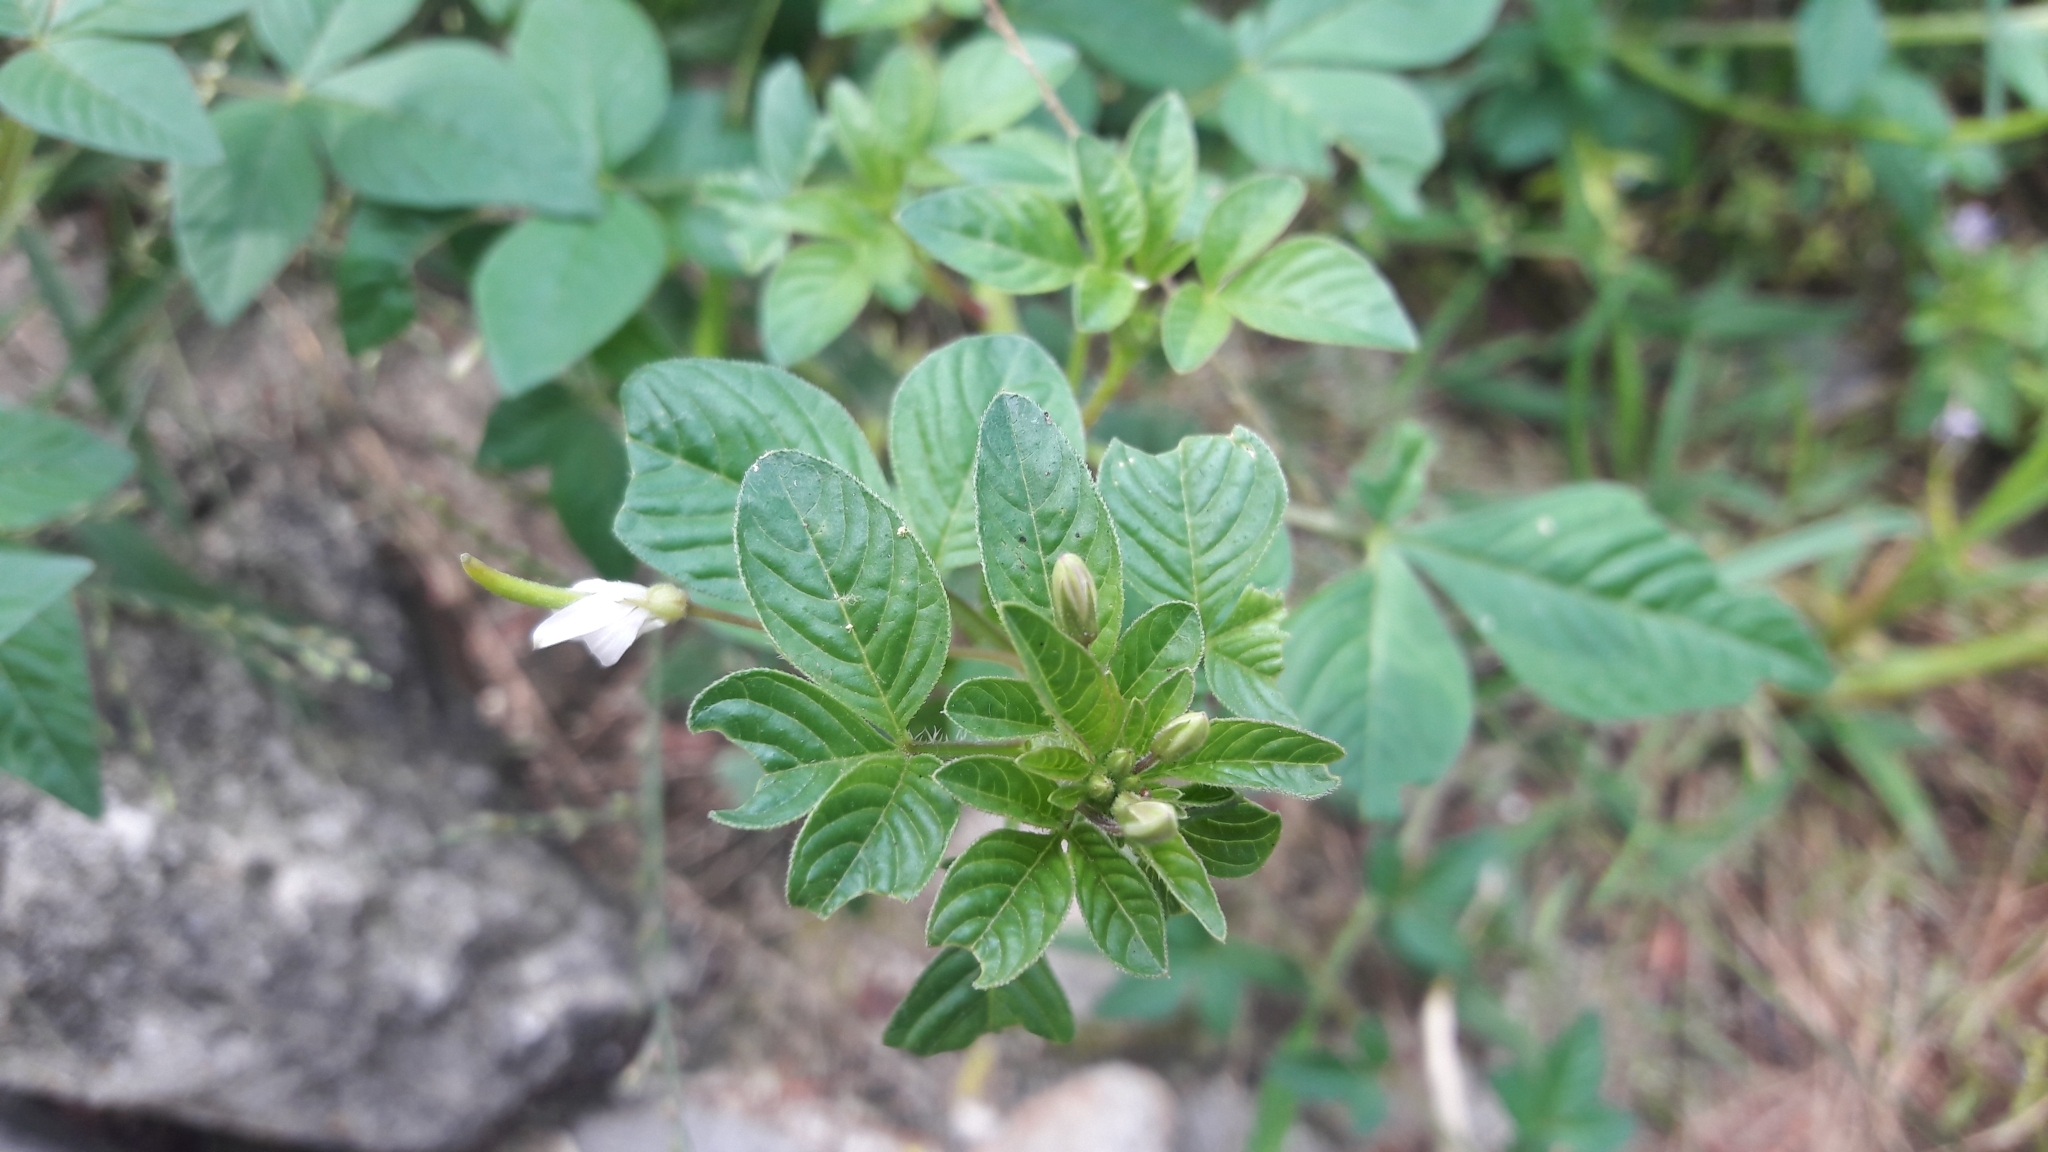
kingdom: Plantae
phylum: Tracheophyta
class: Magnoliopsida
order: Brassicales
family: Cleomaceae
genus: Sieruela
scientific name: Sieruela rutidosperma
